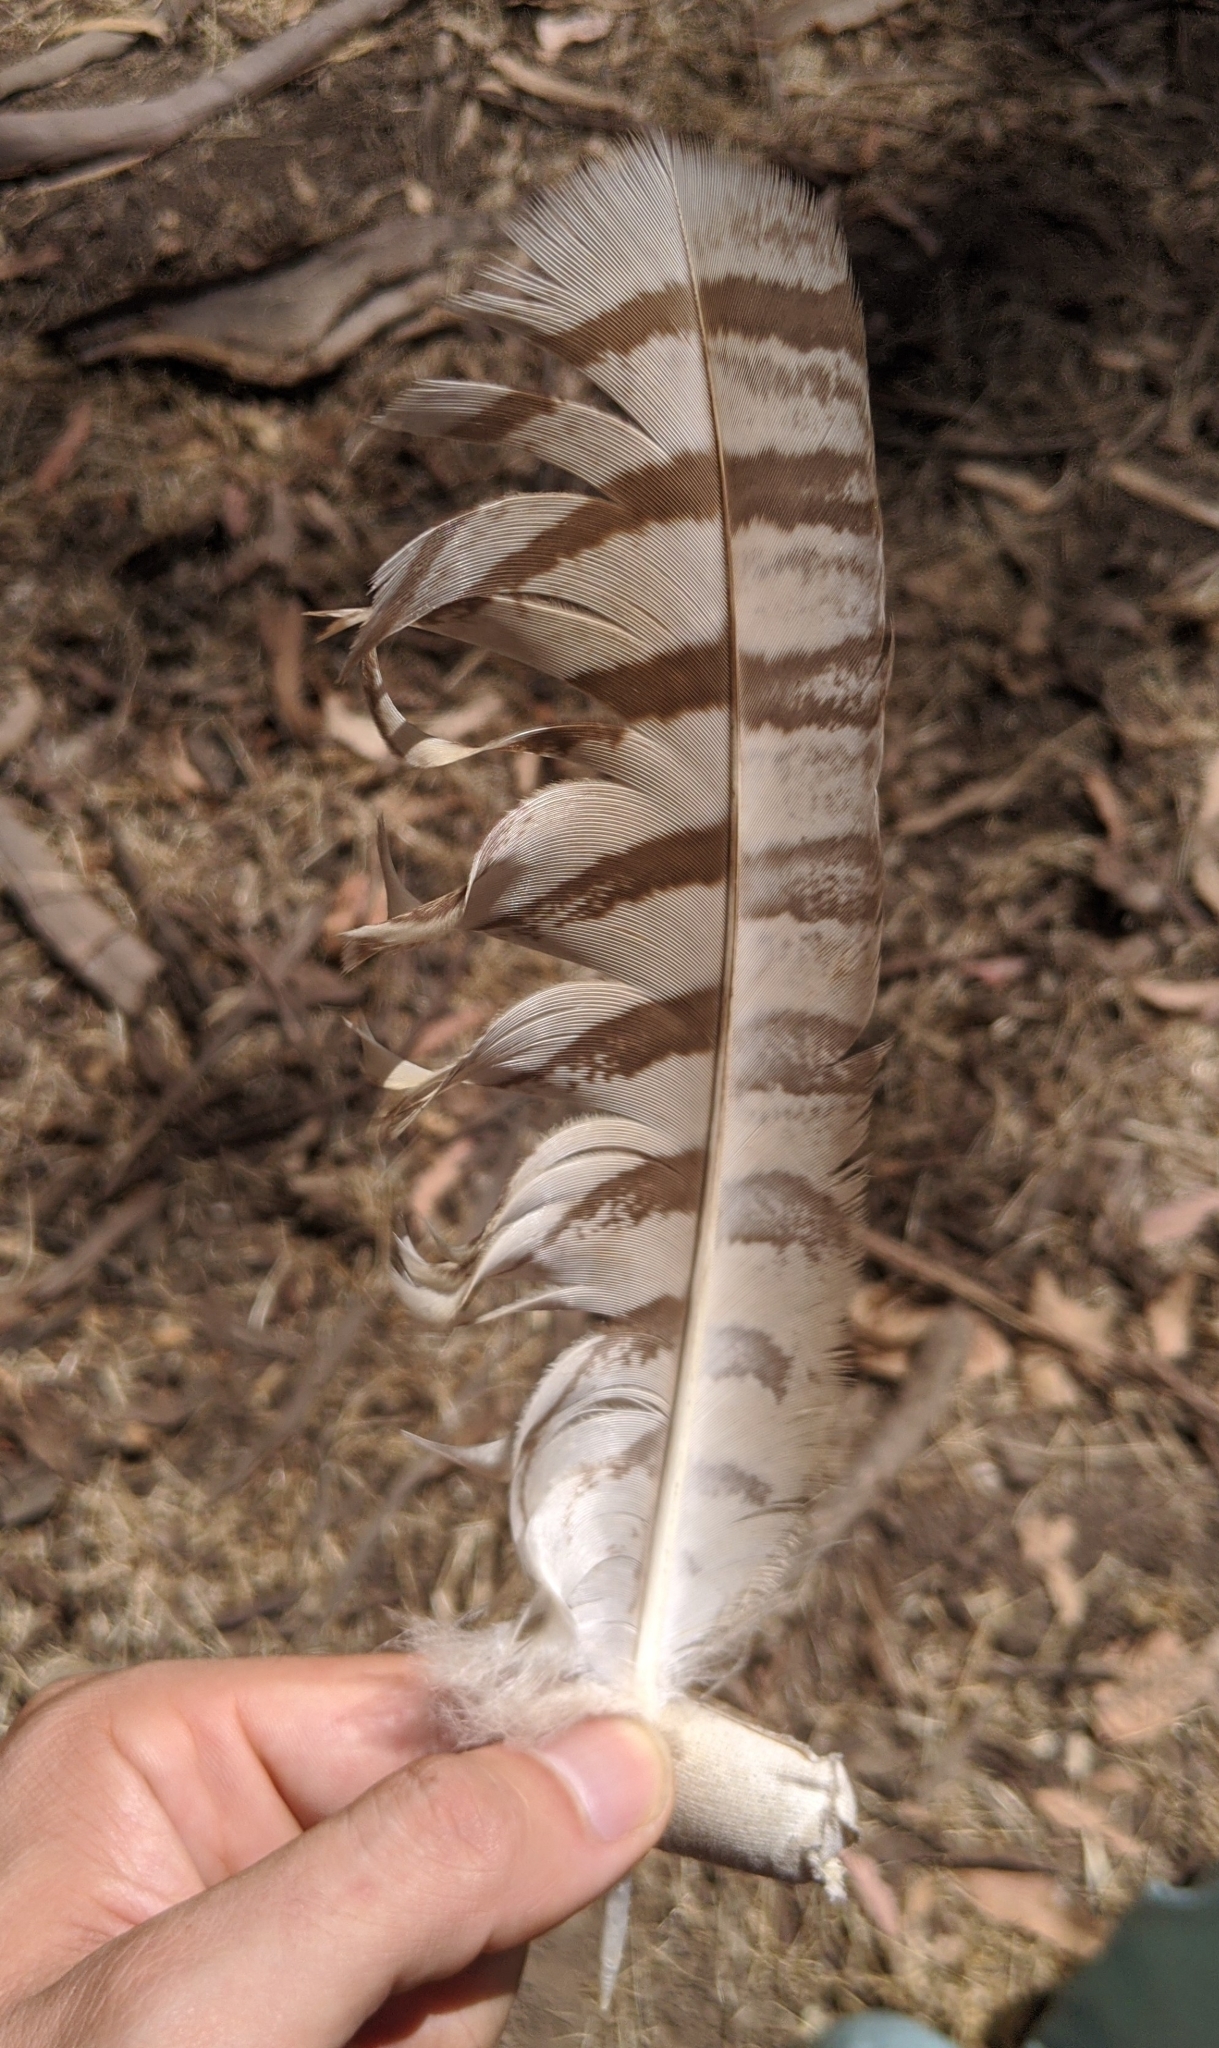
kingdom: Animalia
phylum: Chordata
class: Aves
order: Strigiformes
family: Strigidae
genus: Bubo
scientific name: Bubo virginianus
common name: Great horned owl
